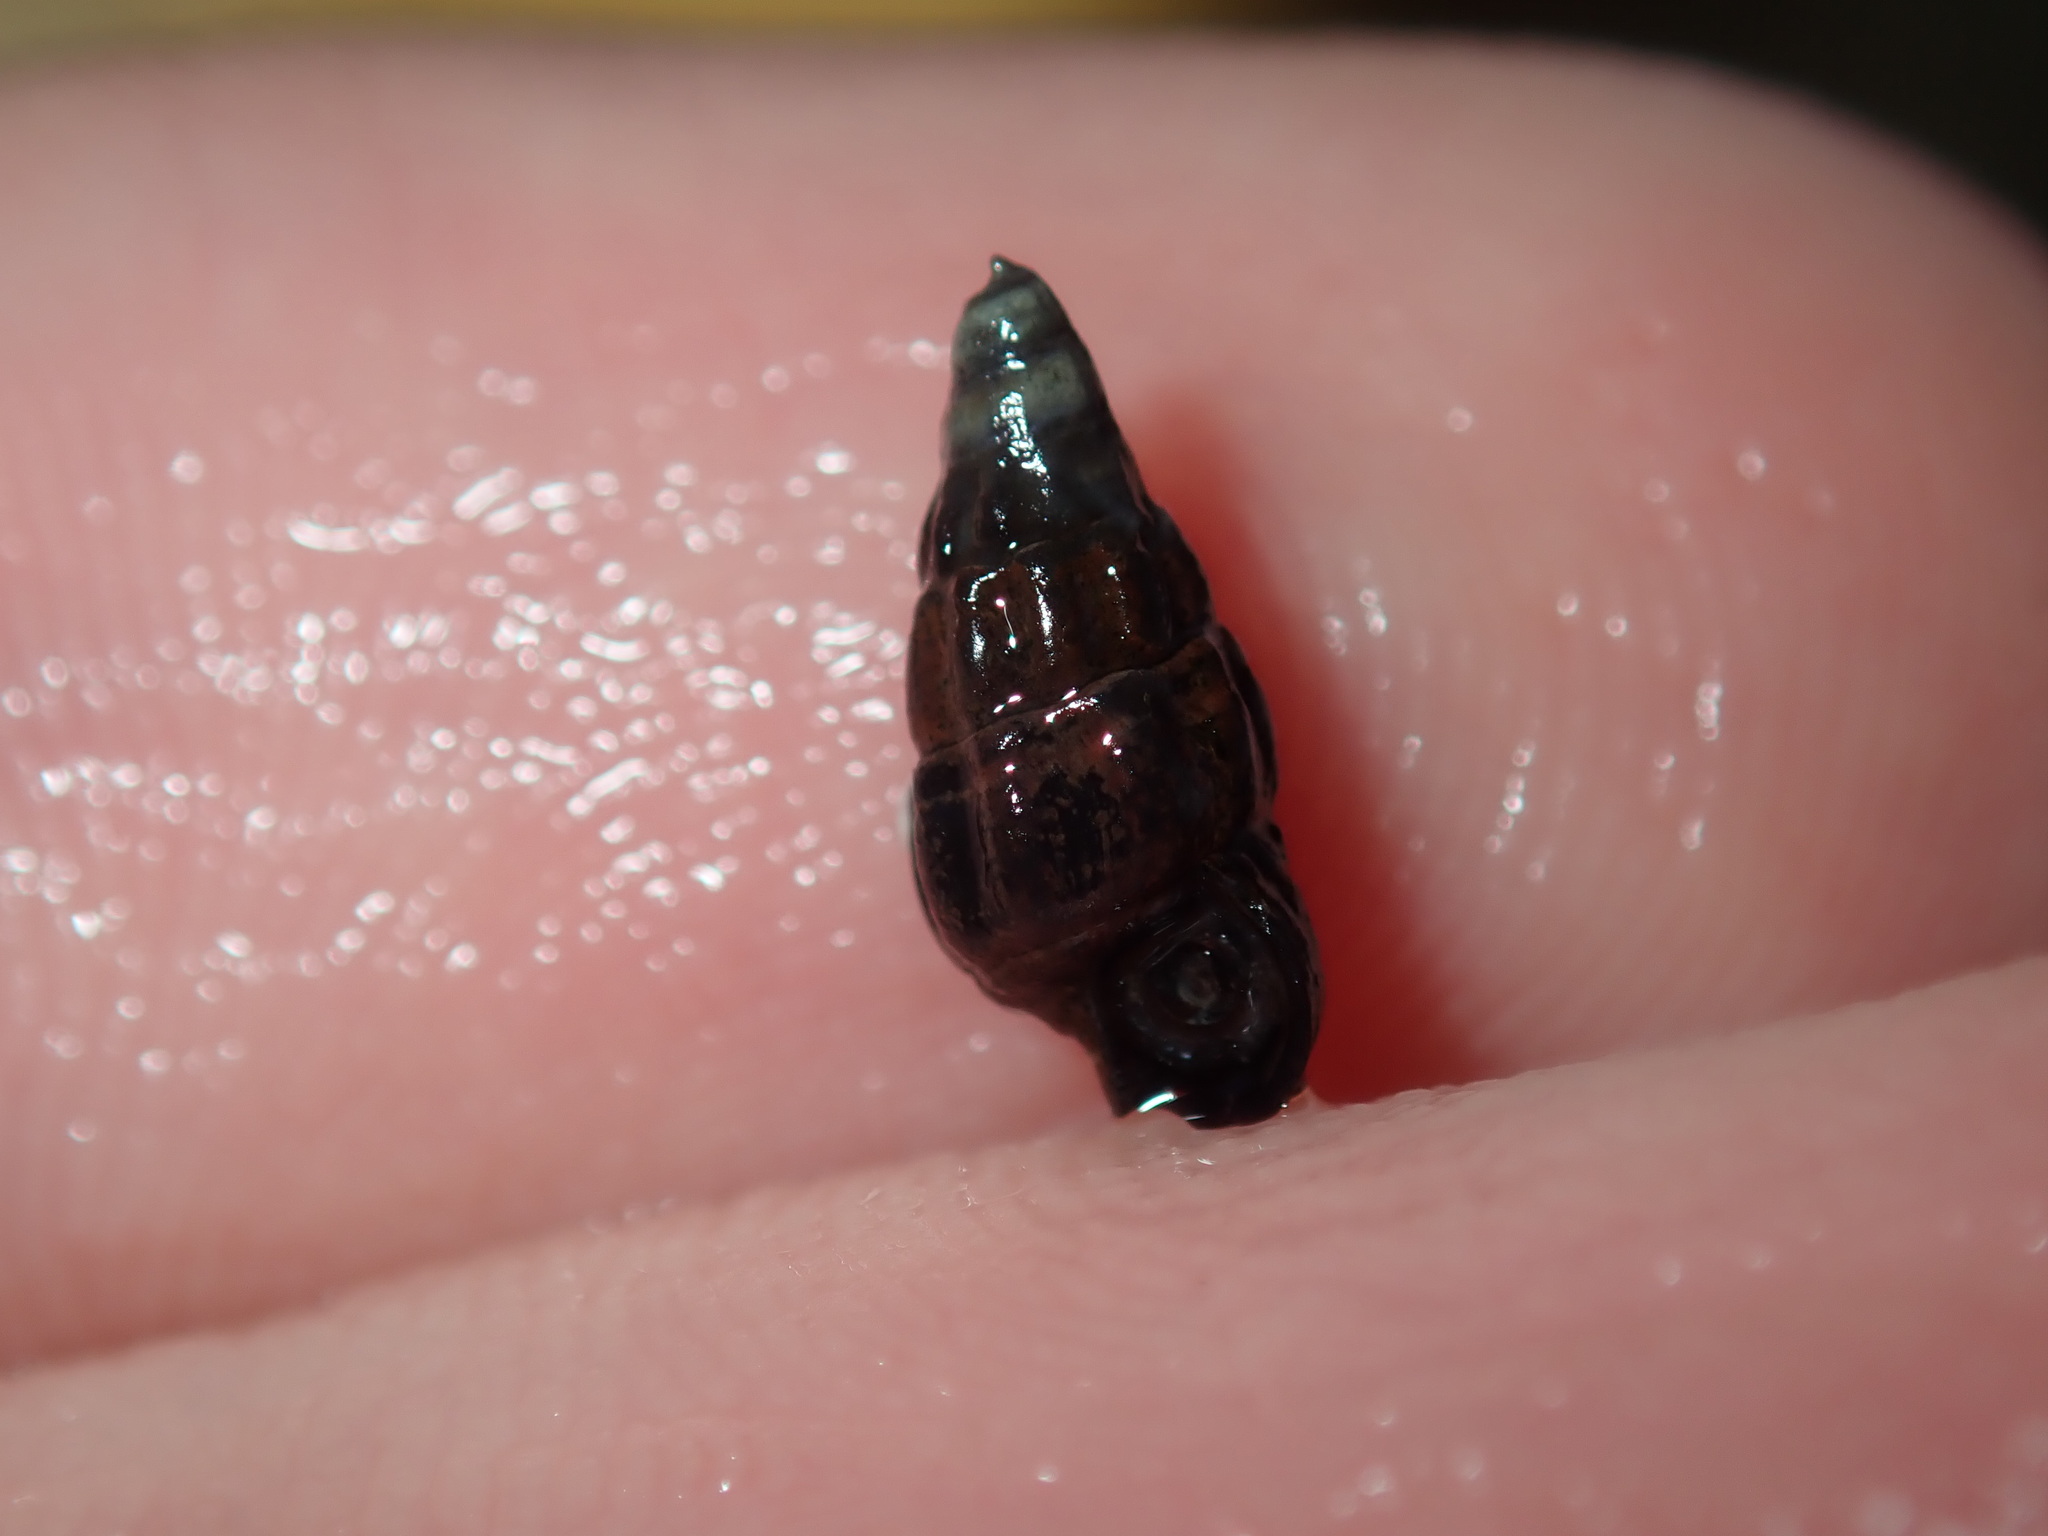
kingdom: Animalia
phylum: Mollusca
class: Gastropoda
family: Batillariidae
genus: Zeacumantus
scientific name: Zeacumantus subcarinatus
